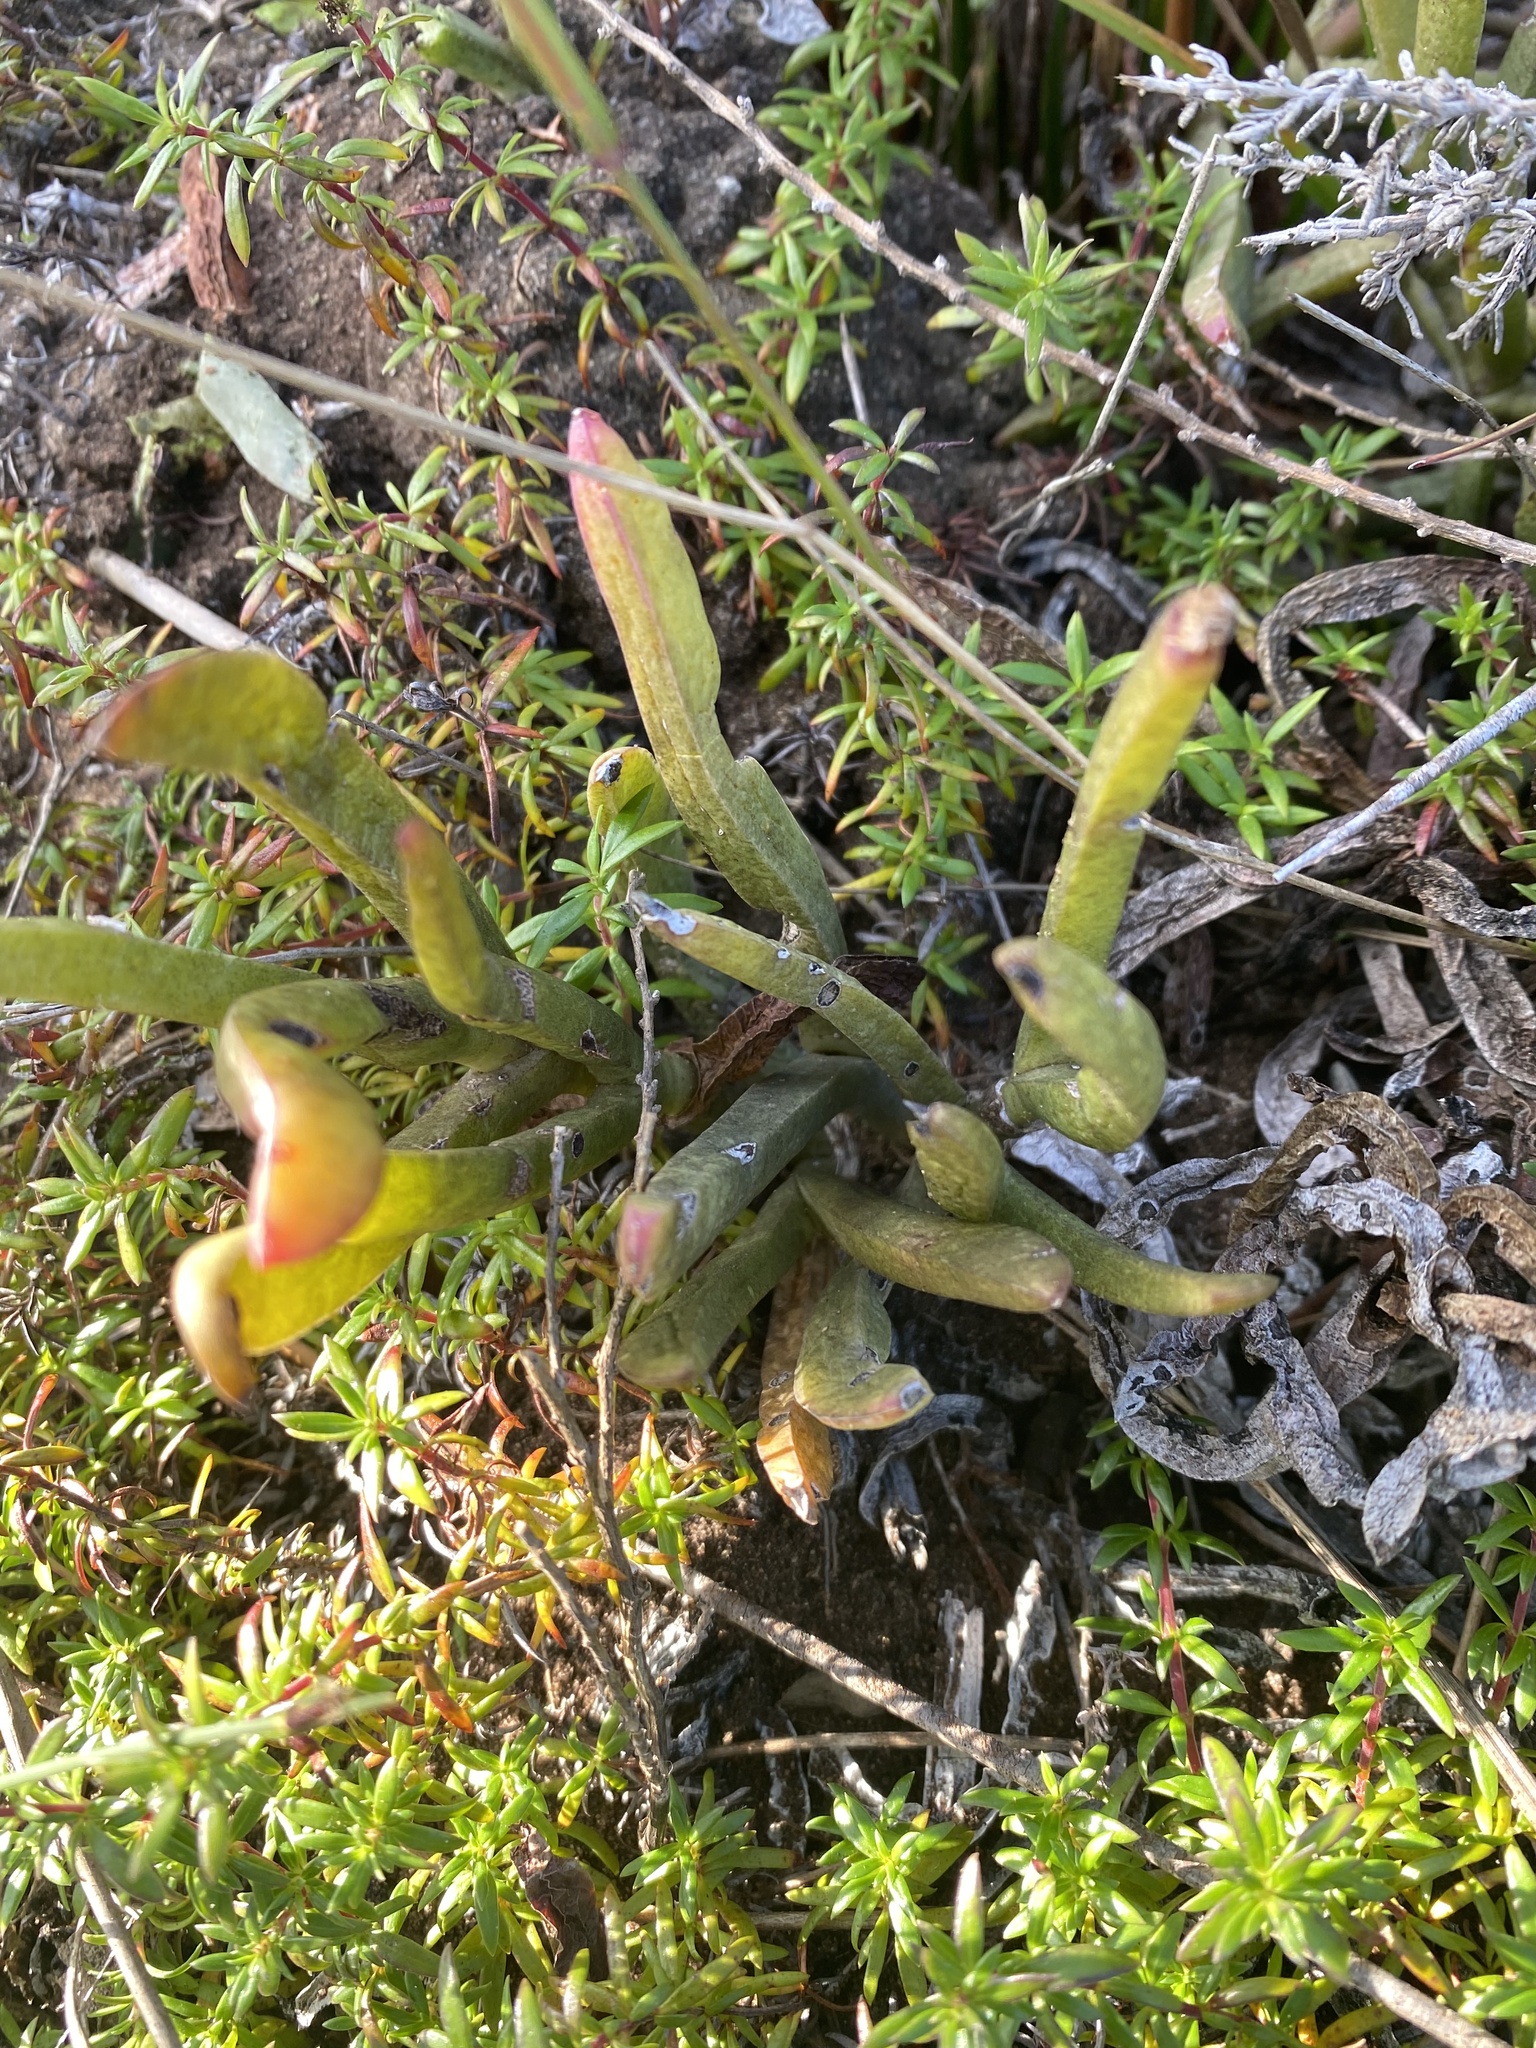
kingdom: Plantae
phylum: Tracheophyta
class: Magnoliopsida
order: Caryophyllales
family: Aizoaceae
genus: Carpobrotus
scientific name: Carpobrotus muirii
